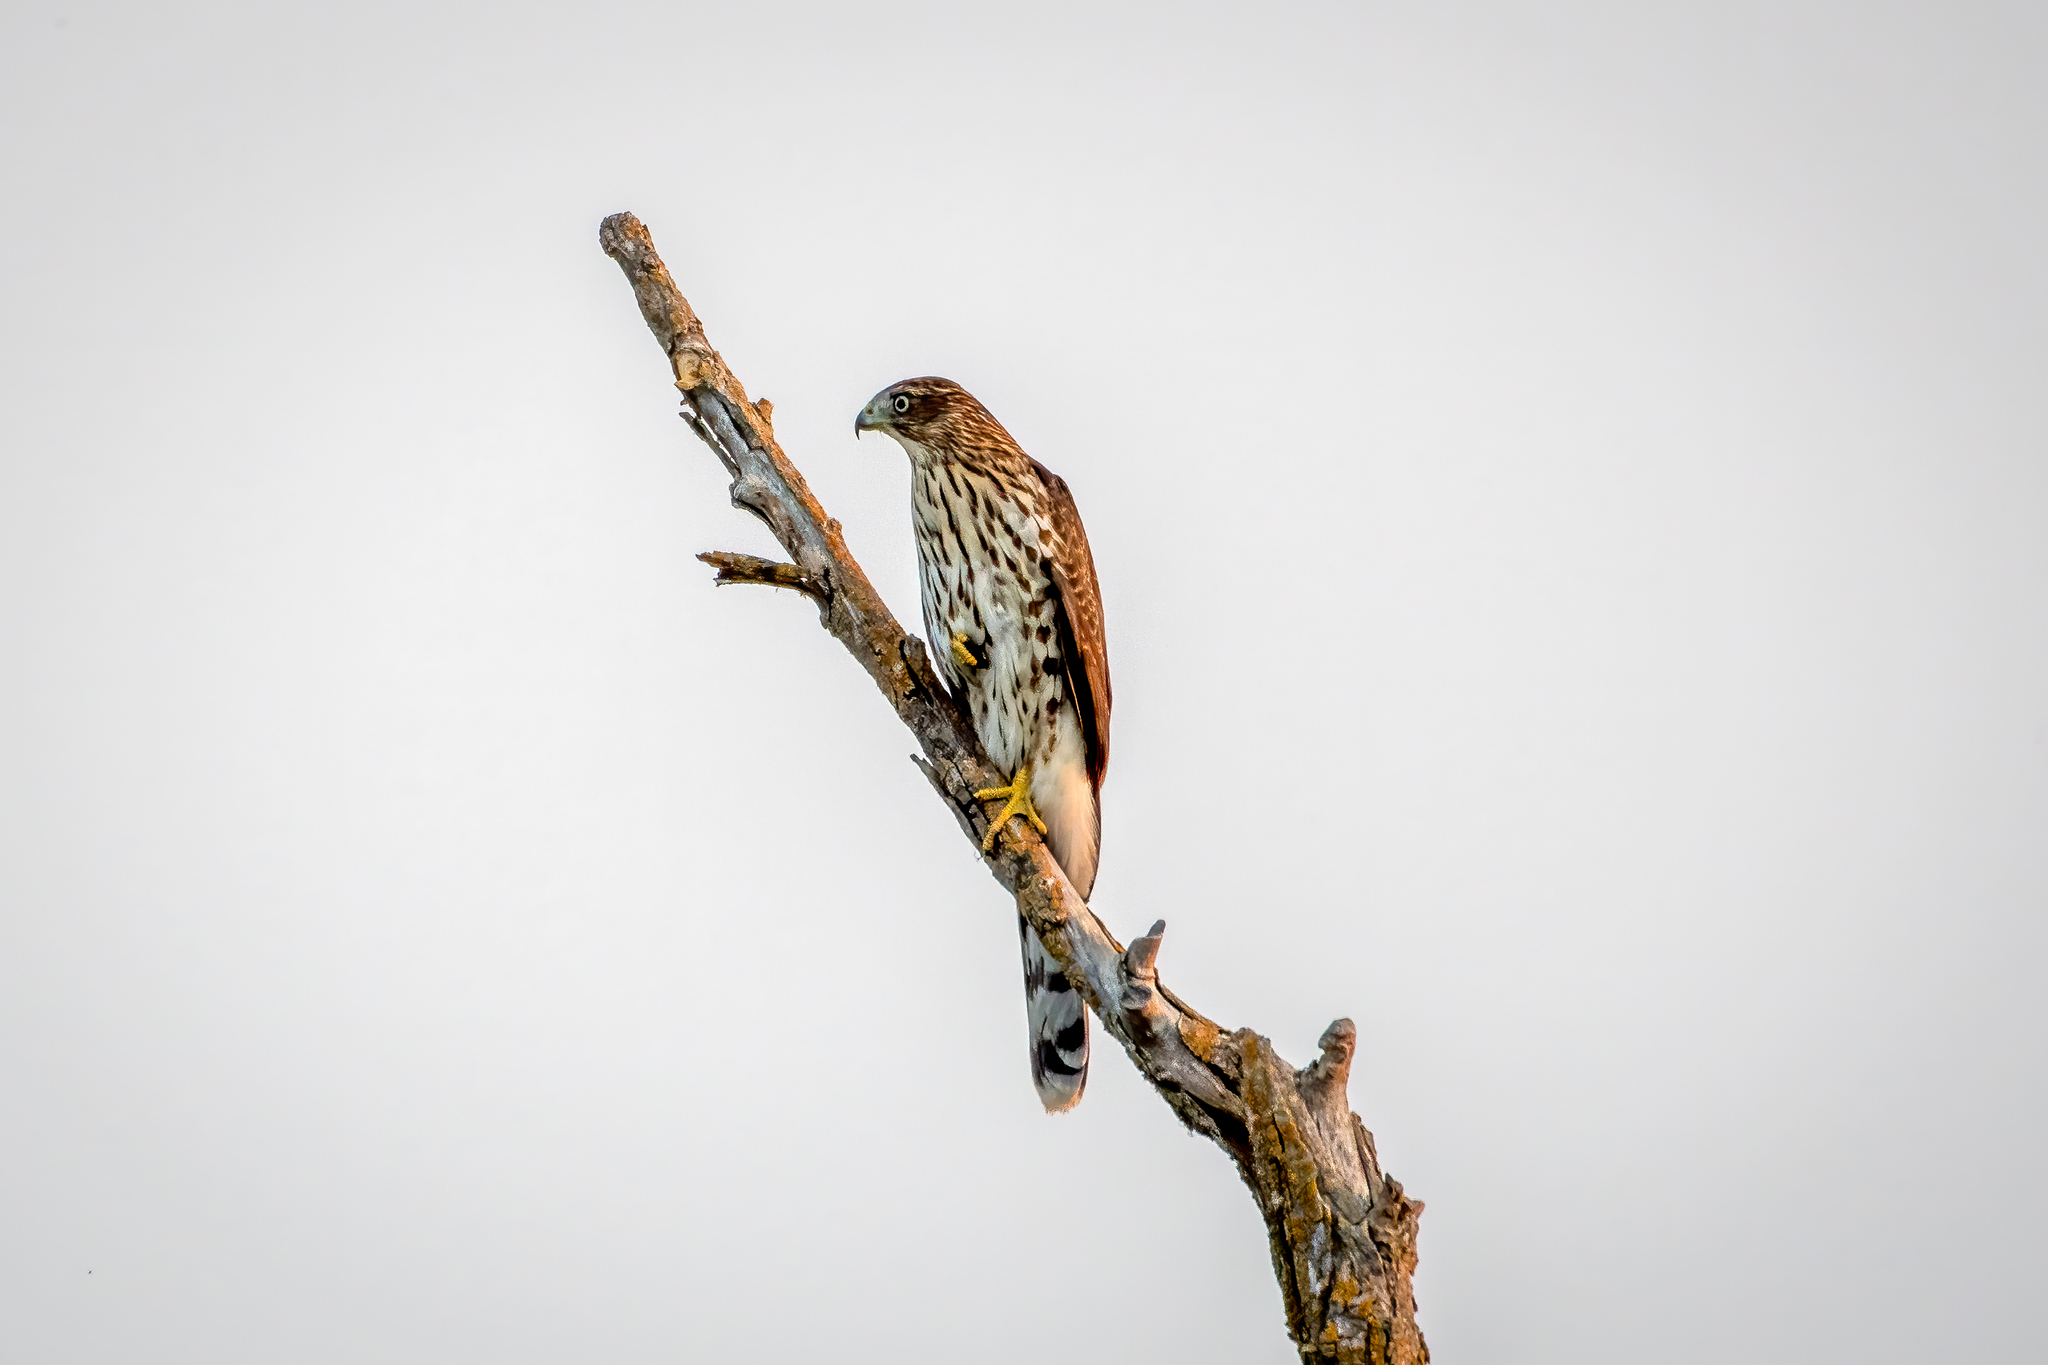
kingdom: Animalia
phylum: Chordata
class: Aves
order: Accipitriformes
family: Accipitridae
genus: Accipiter
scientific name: Accipiter cooperii
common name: Cooper's hawk
